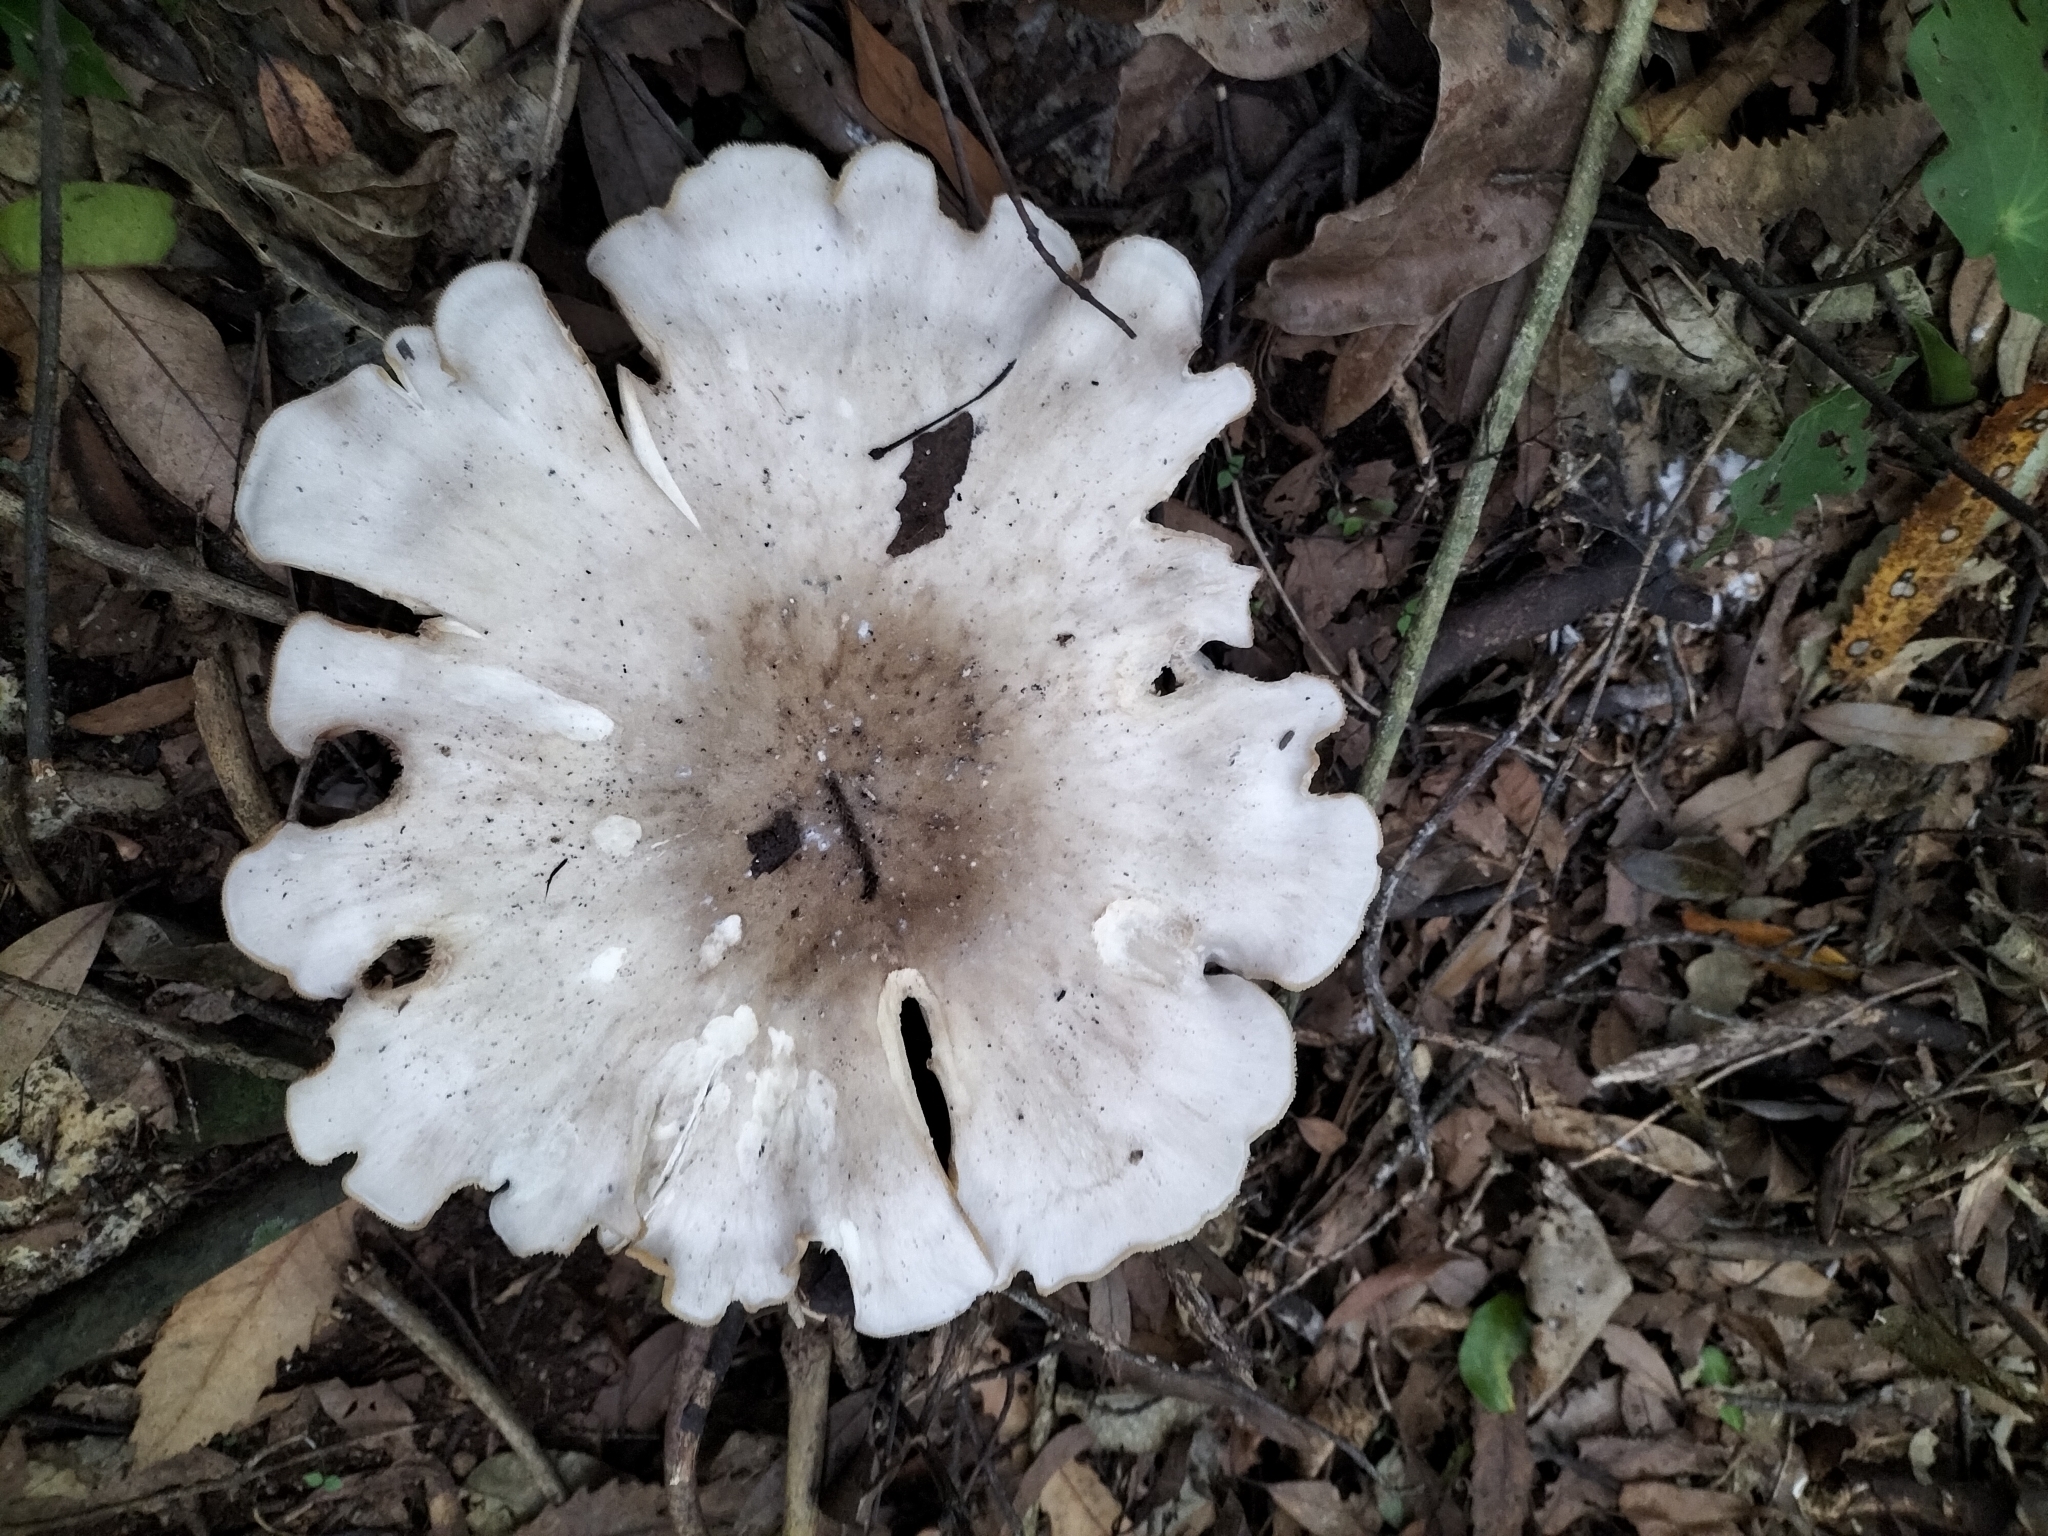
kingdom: Fungi
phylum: Basidiomycota
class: Agaricomycetes
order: Agaricales
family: Tricholomataceae
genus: Clitocybe
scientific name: Clitocybe nebularis
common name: Clouded agaric
